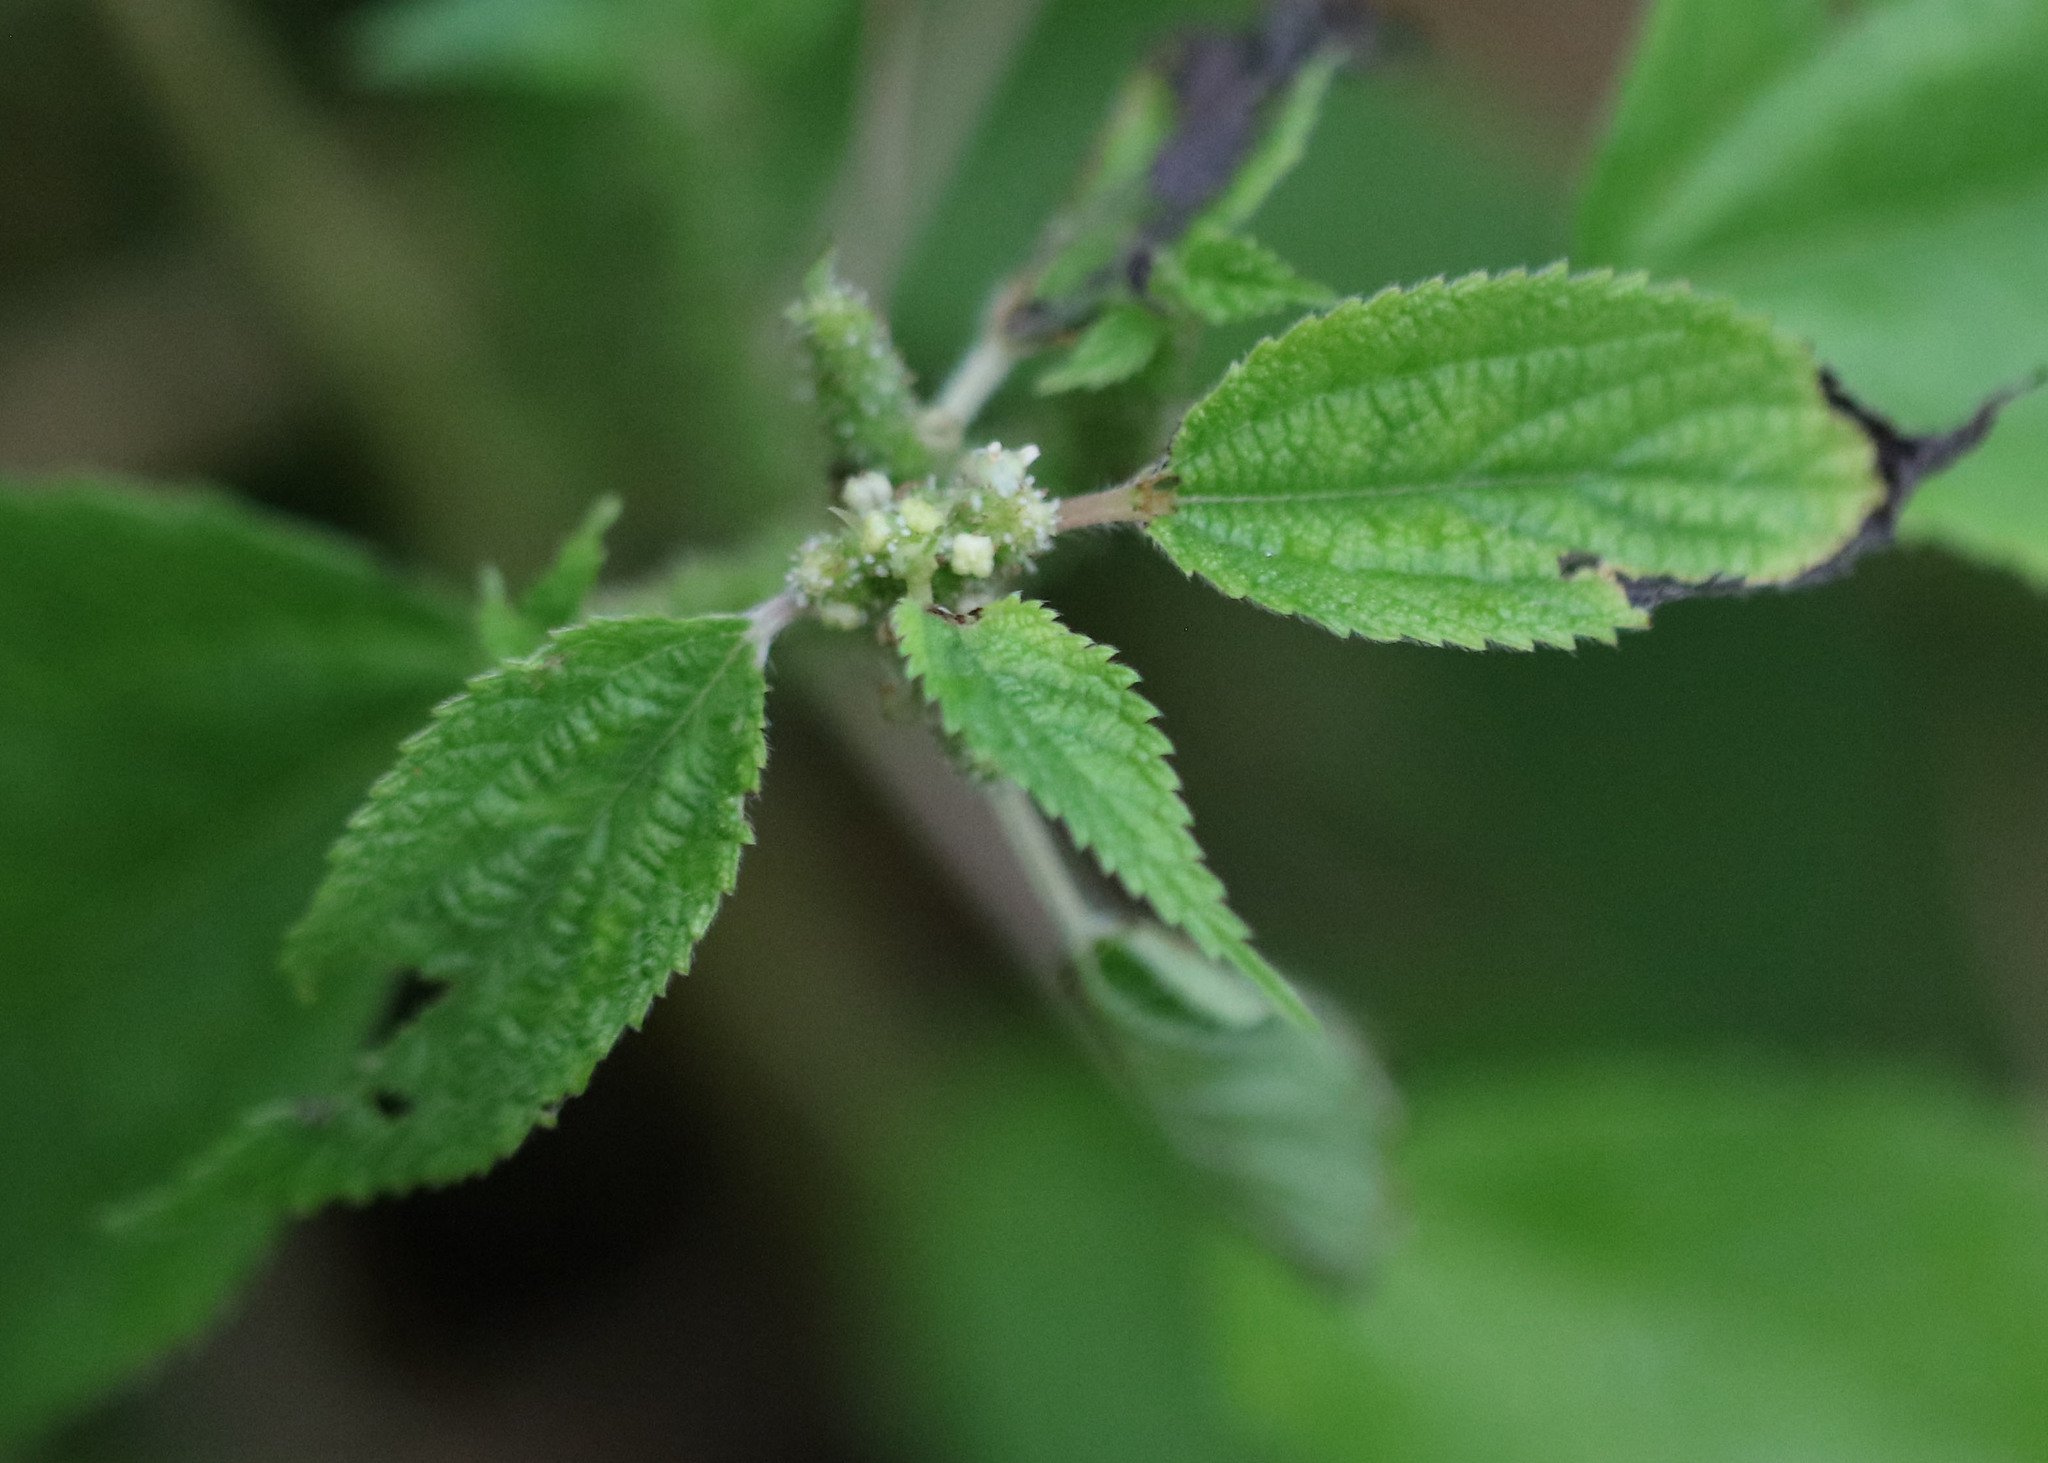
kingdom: Plantae
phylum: Tracheophyta
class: Magnoliopsida
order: Rosales
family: Urticaceae
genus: Boehmeria
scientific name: Boehmeria cylindrica
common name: Bog-hemp
